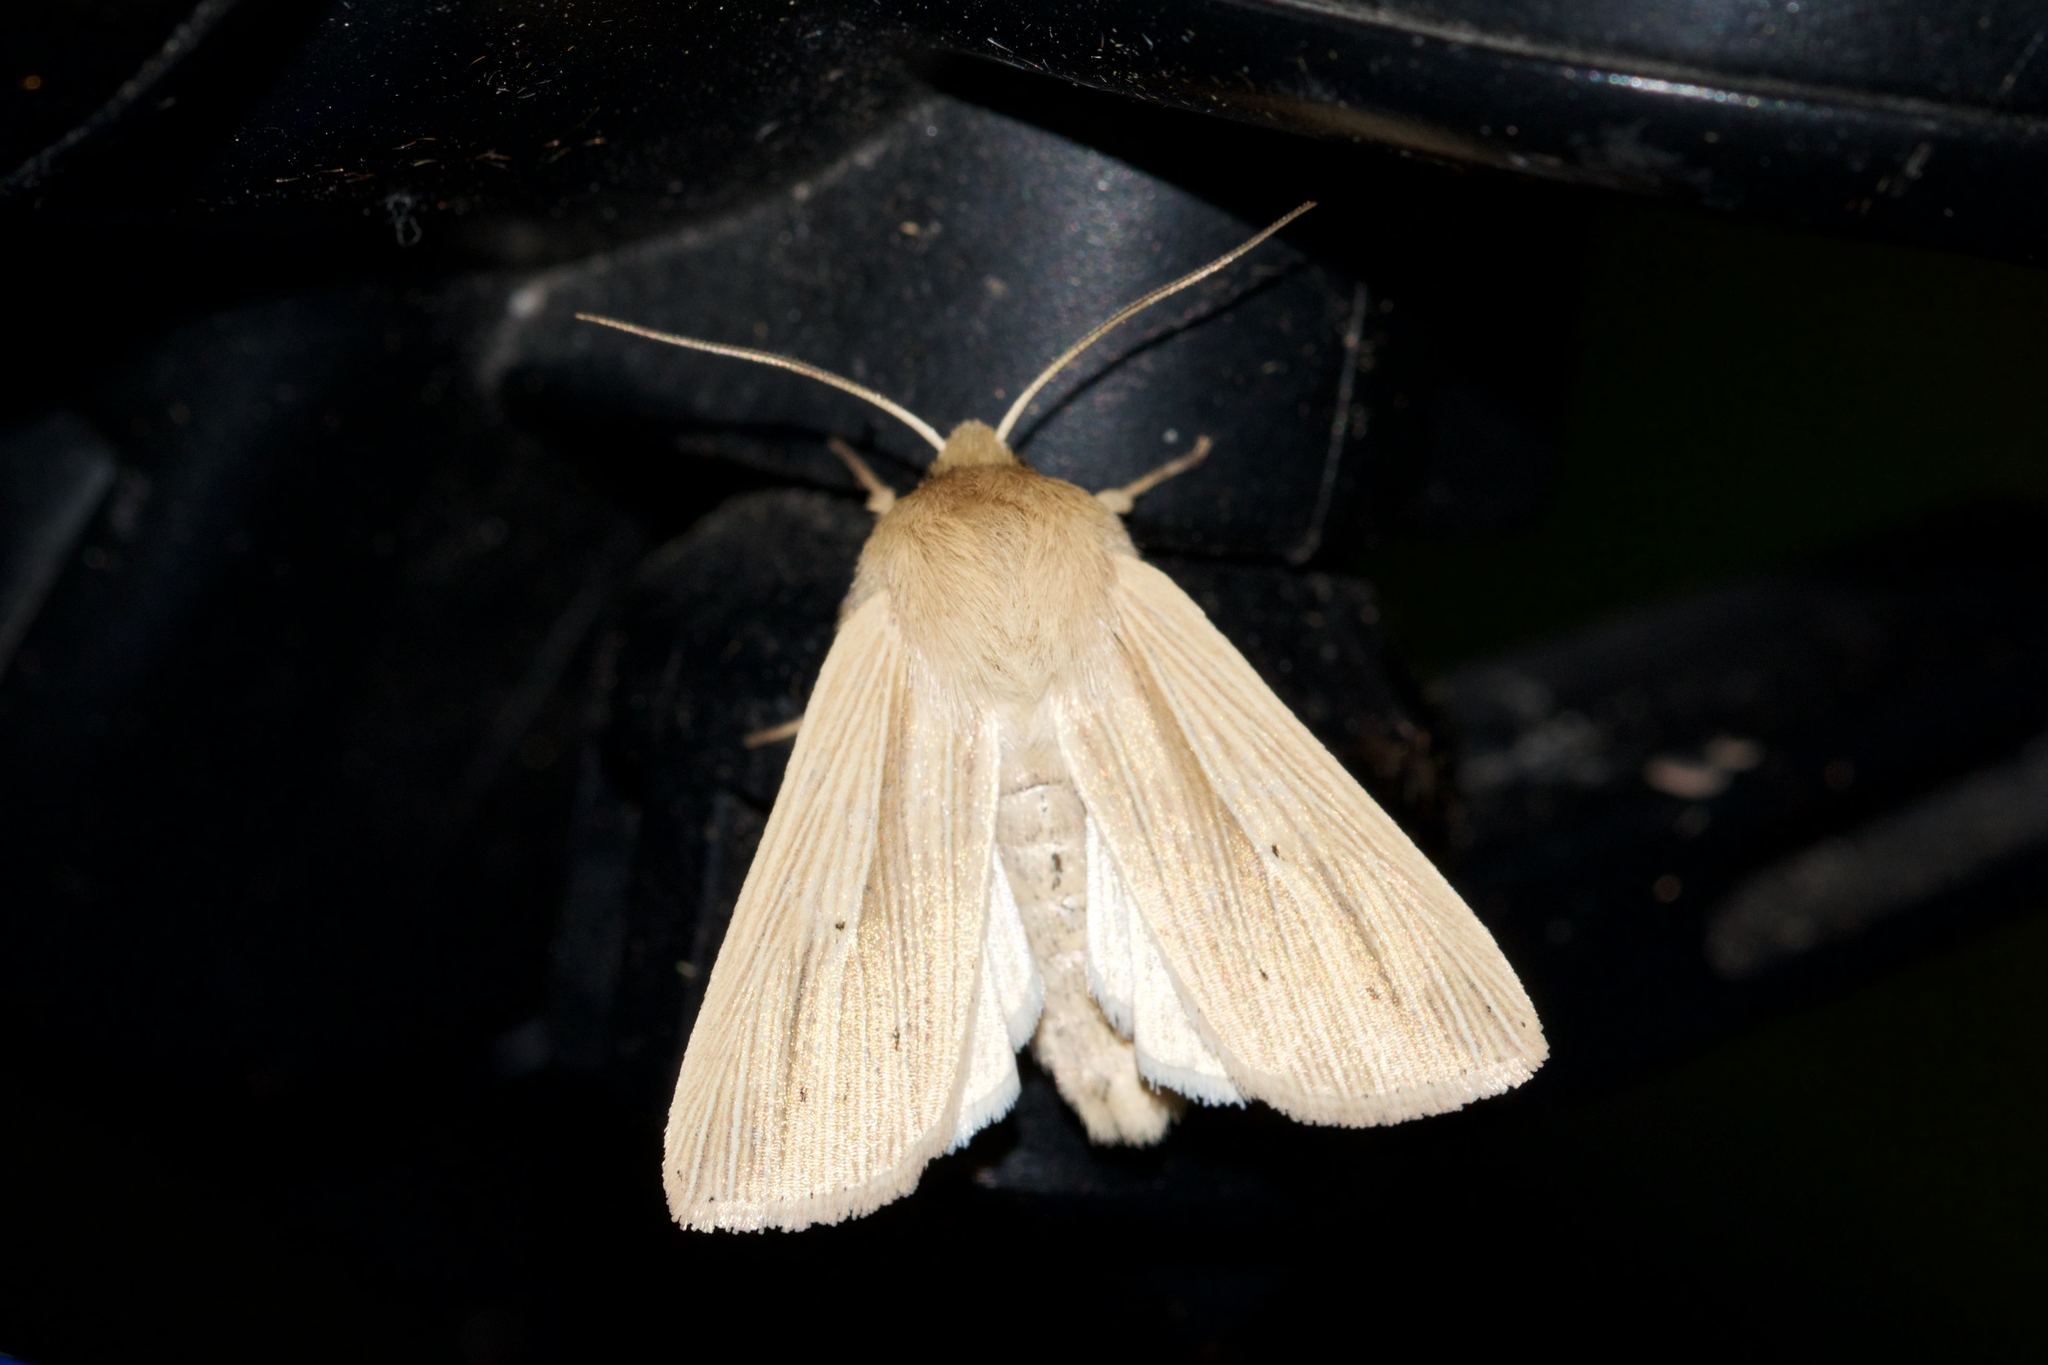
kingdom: Animalia
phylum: Arthropoda
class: Insecta
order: Lepidoptera
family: Noctuidae
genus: Mythimna
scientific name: Mythimna oxygala
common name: Lesser wainscot
